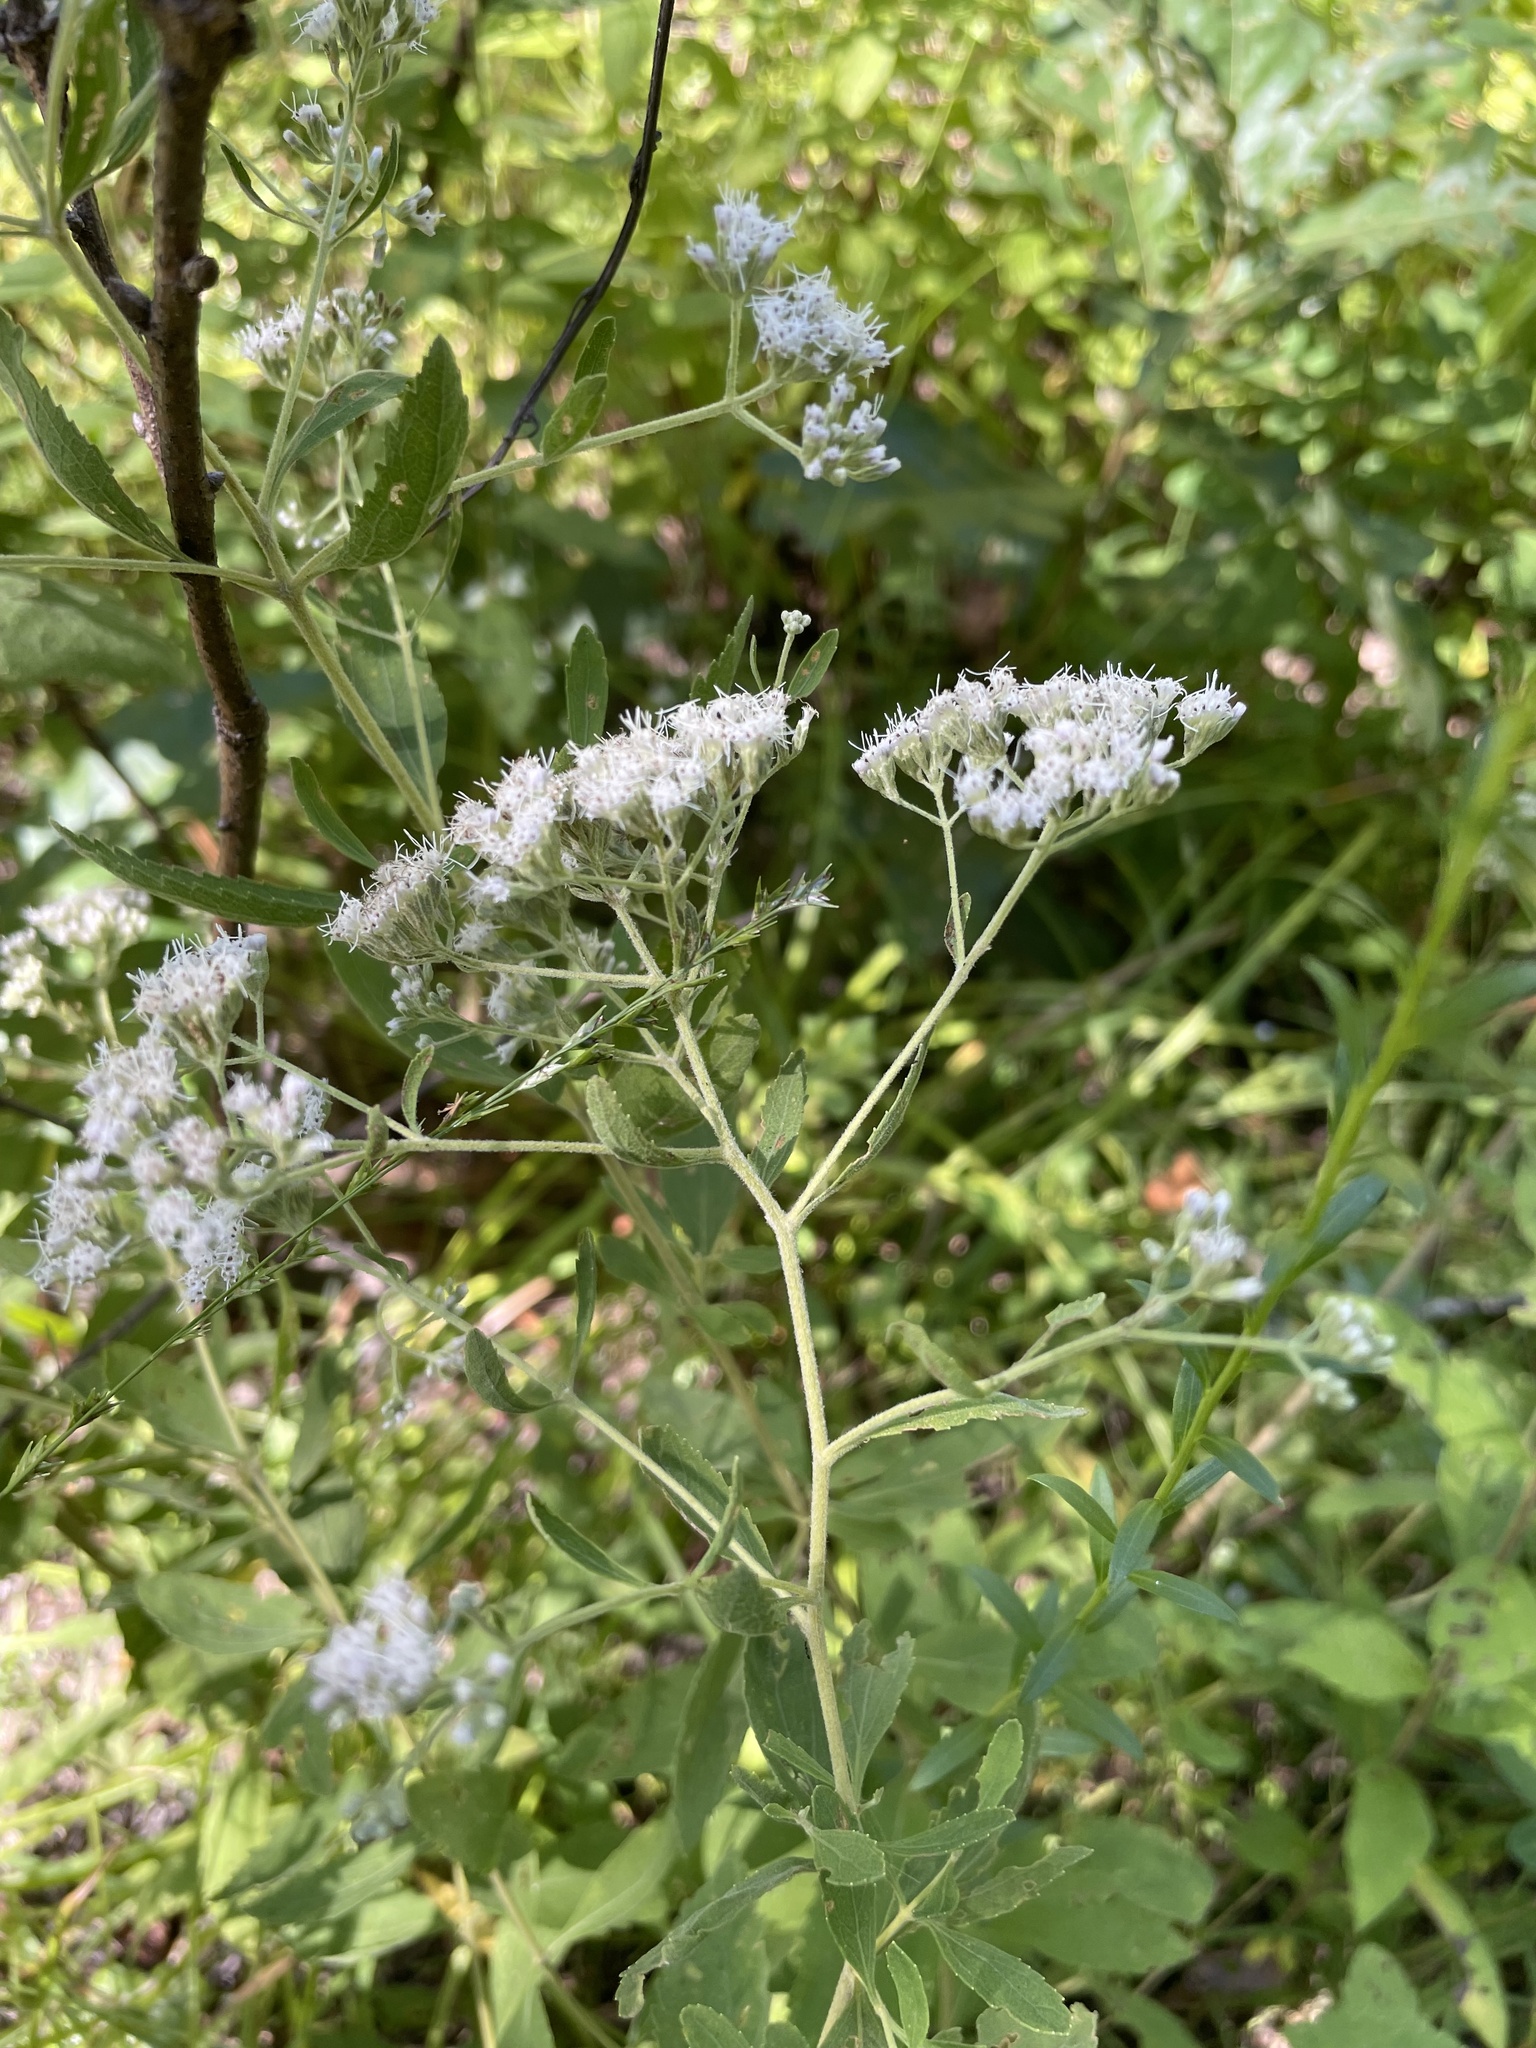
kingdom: Plantae
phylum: Tracheophyta
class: Magnoliopsida
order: Asterales
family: Asteraceae
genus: Eupatorium
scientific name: Eupatorium semiserratum
